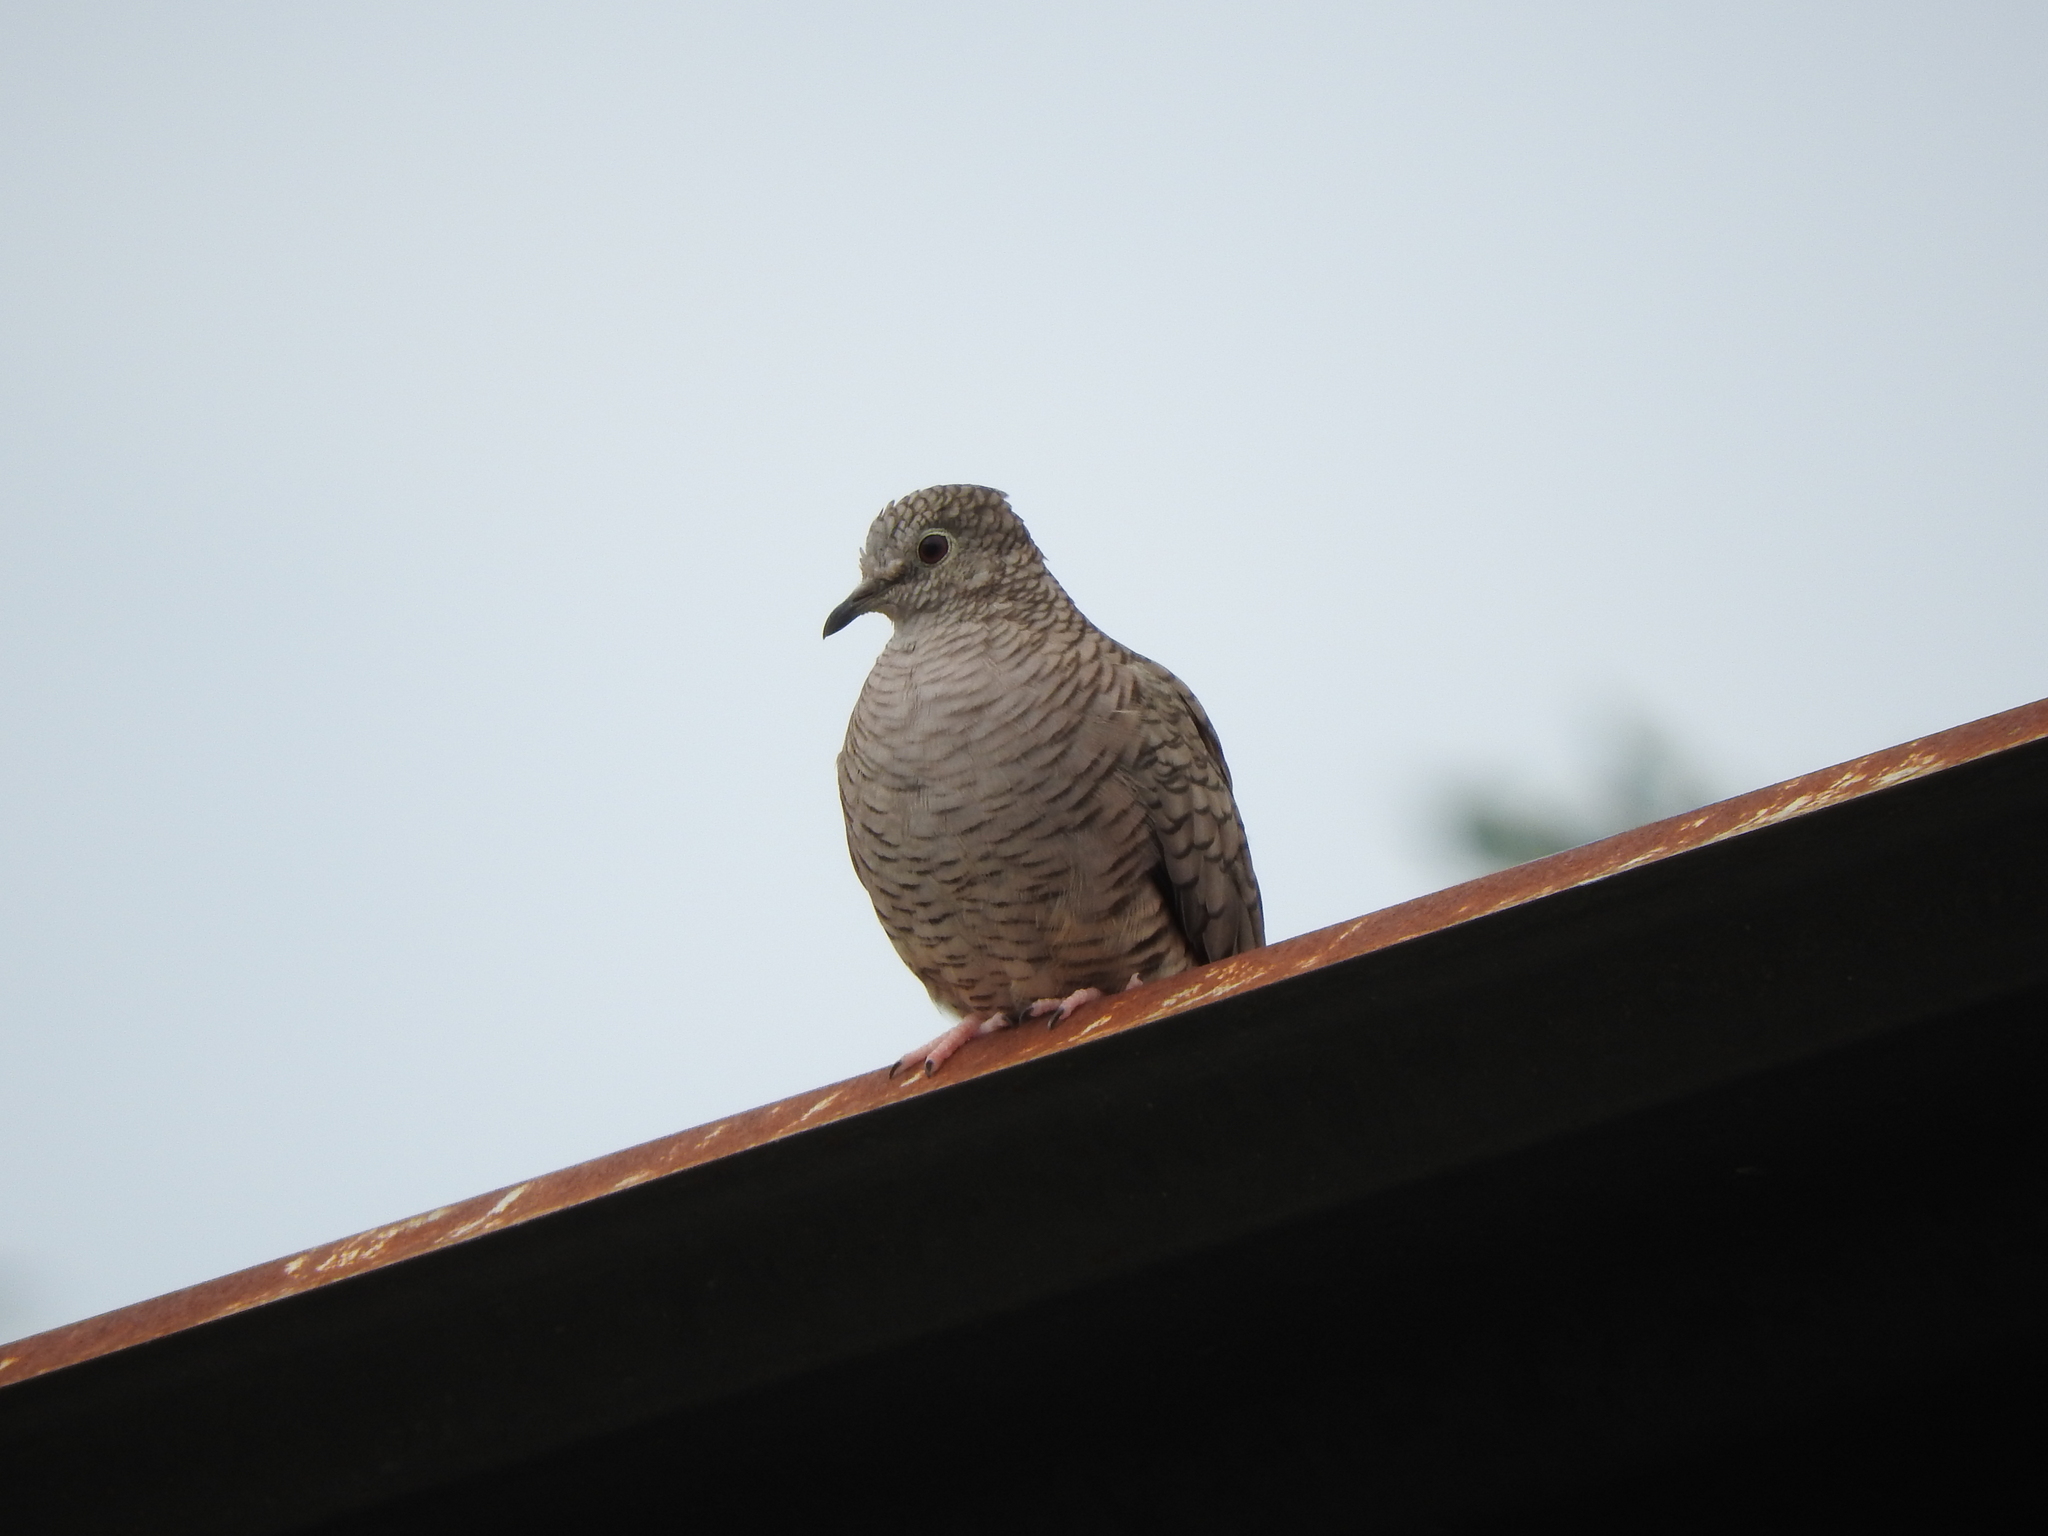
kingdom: Animalia
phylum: Chordata
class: Aves
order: Columbiformes
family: Columbidae
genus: Columbina
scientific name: Columbina inca
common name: Inca dove
